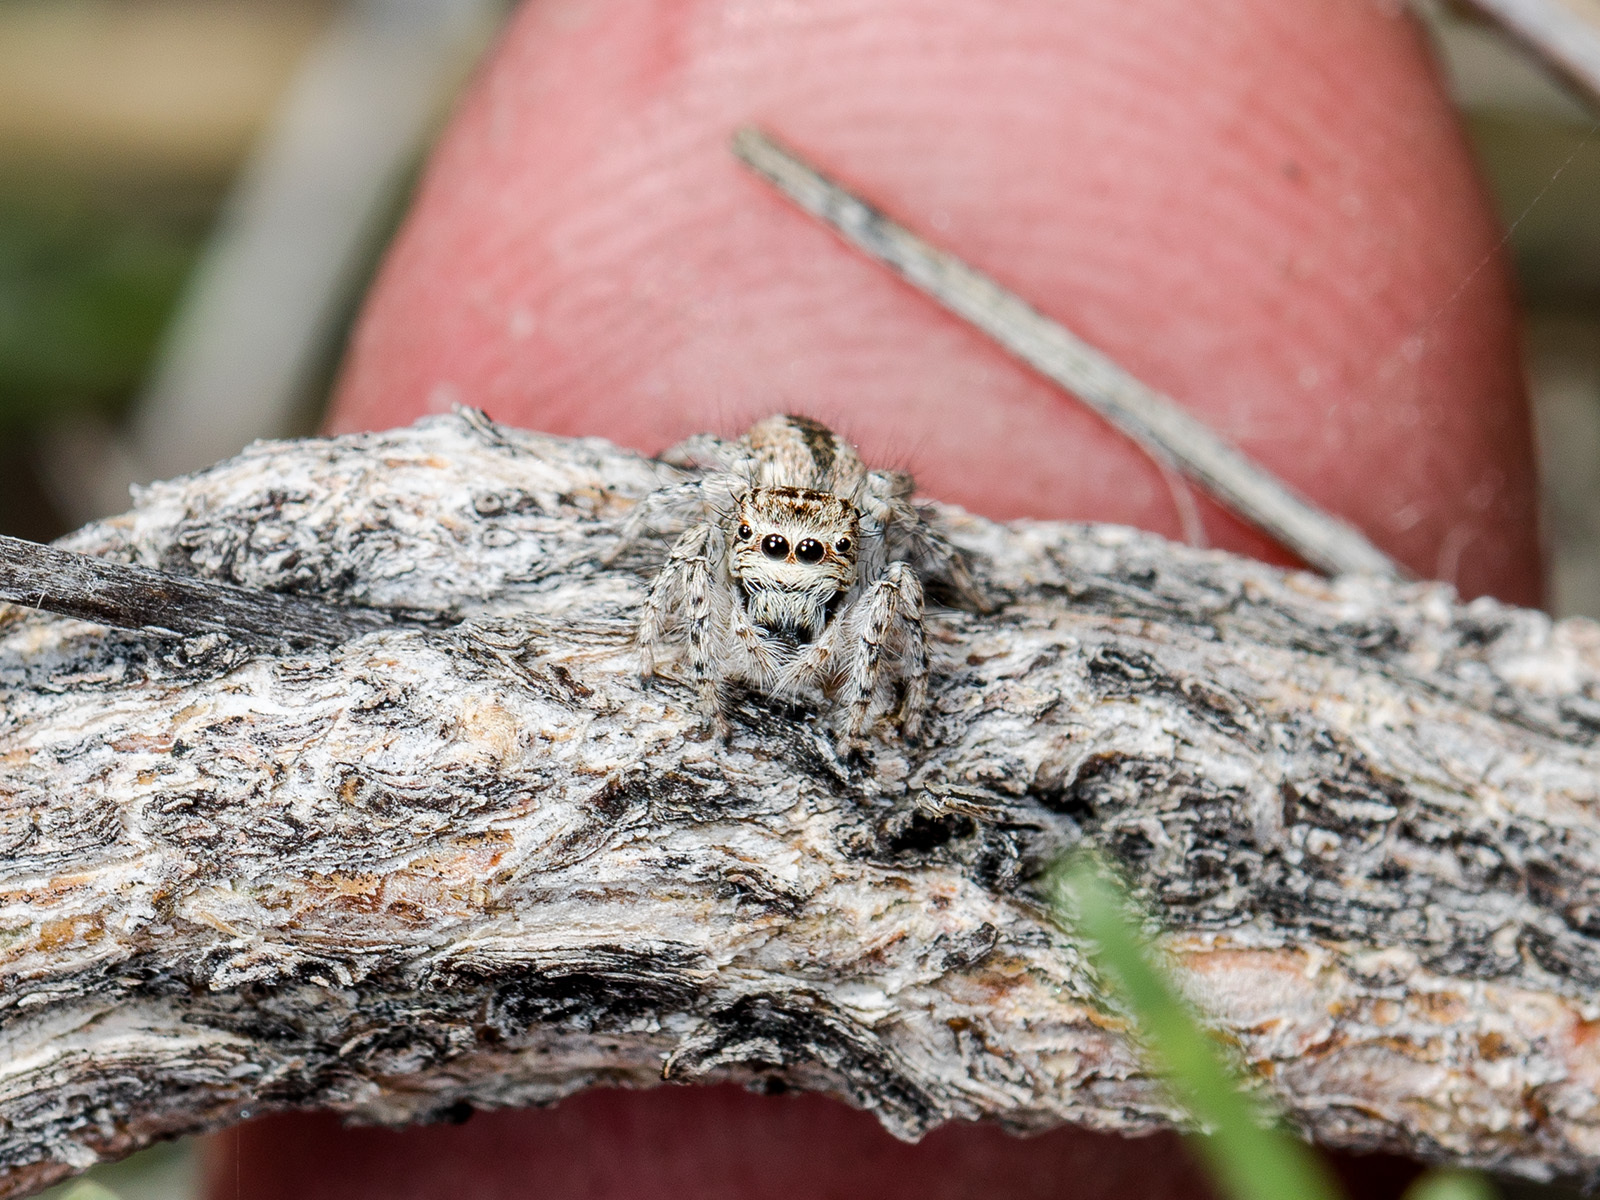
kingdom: Animalia
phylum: Arthropoda
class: Arachnida
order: Araneae
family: Salticidae
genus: Mogrus
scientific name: Mogrus antoninus
